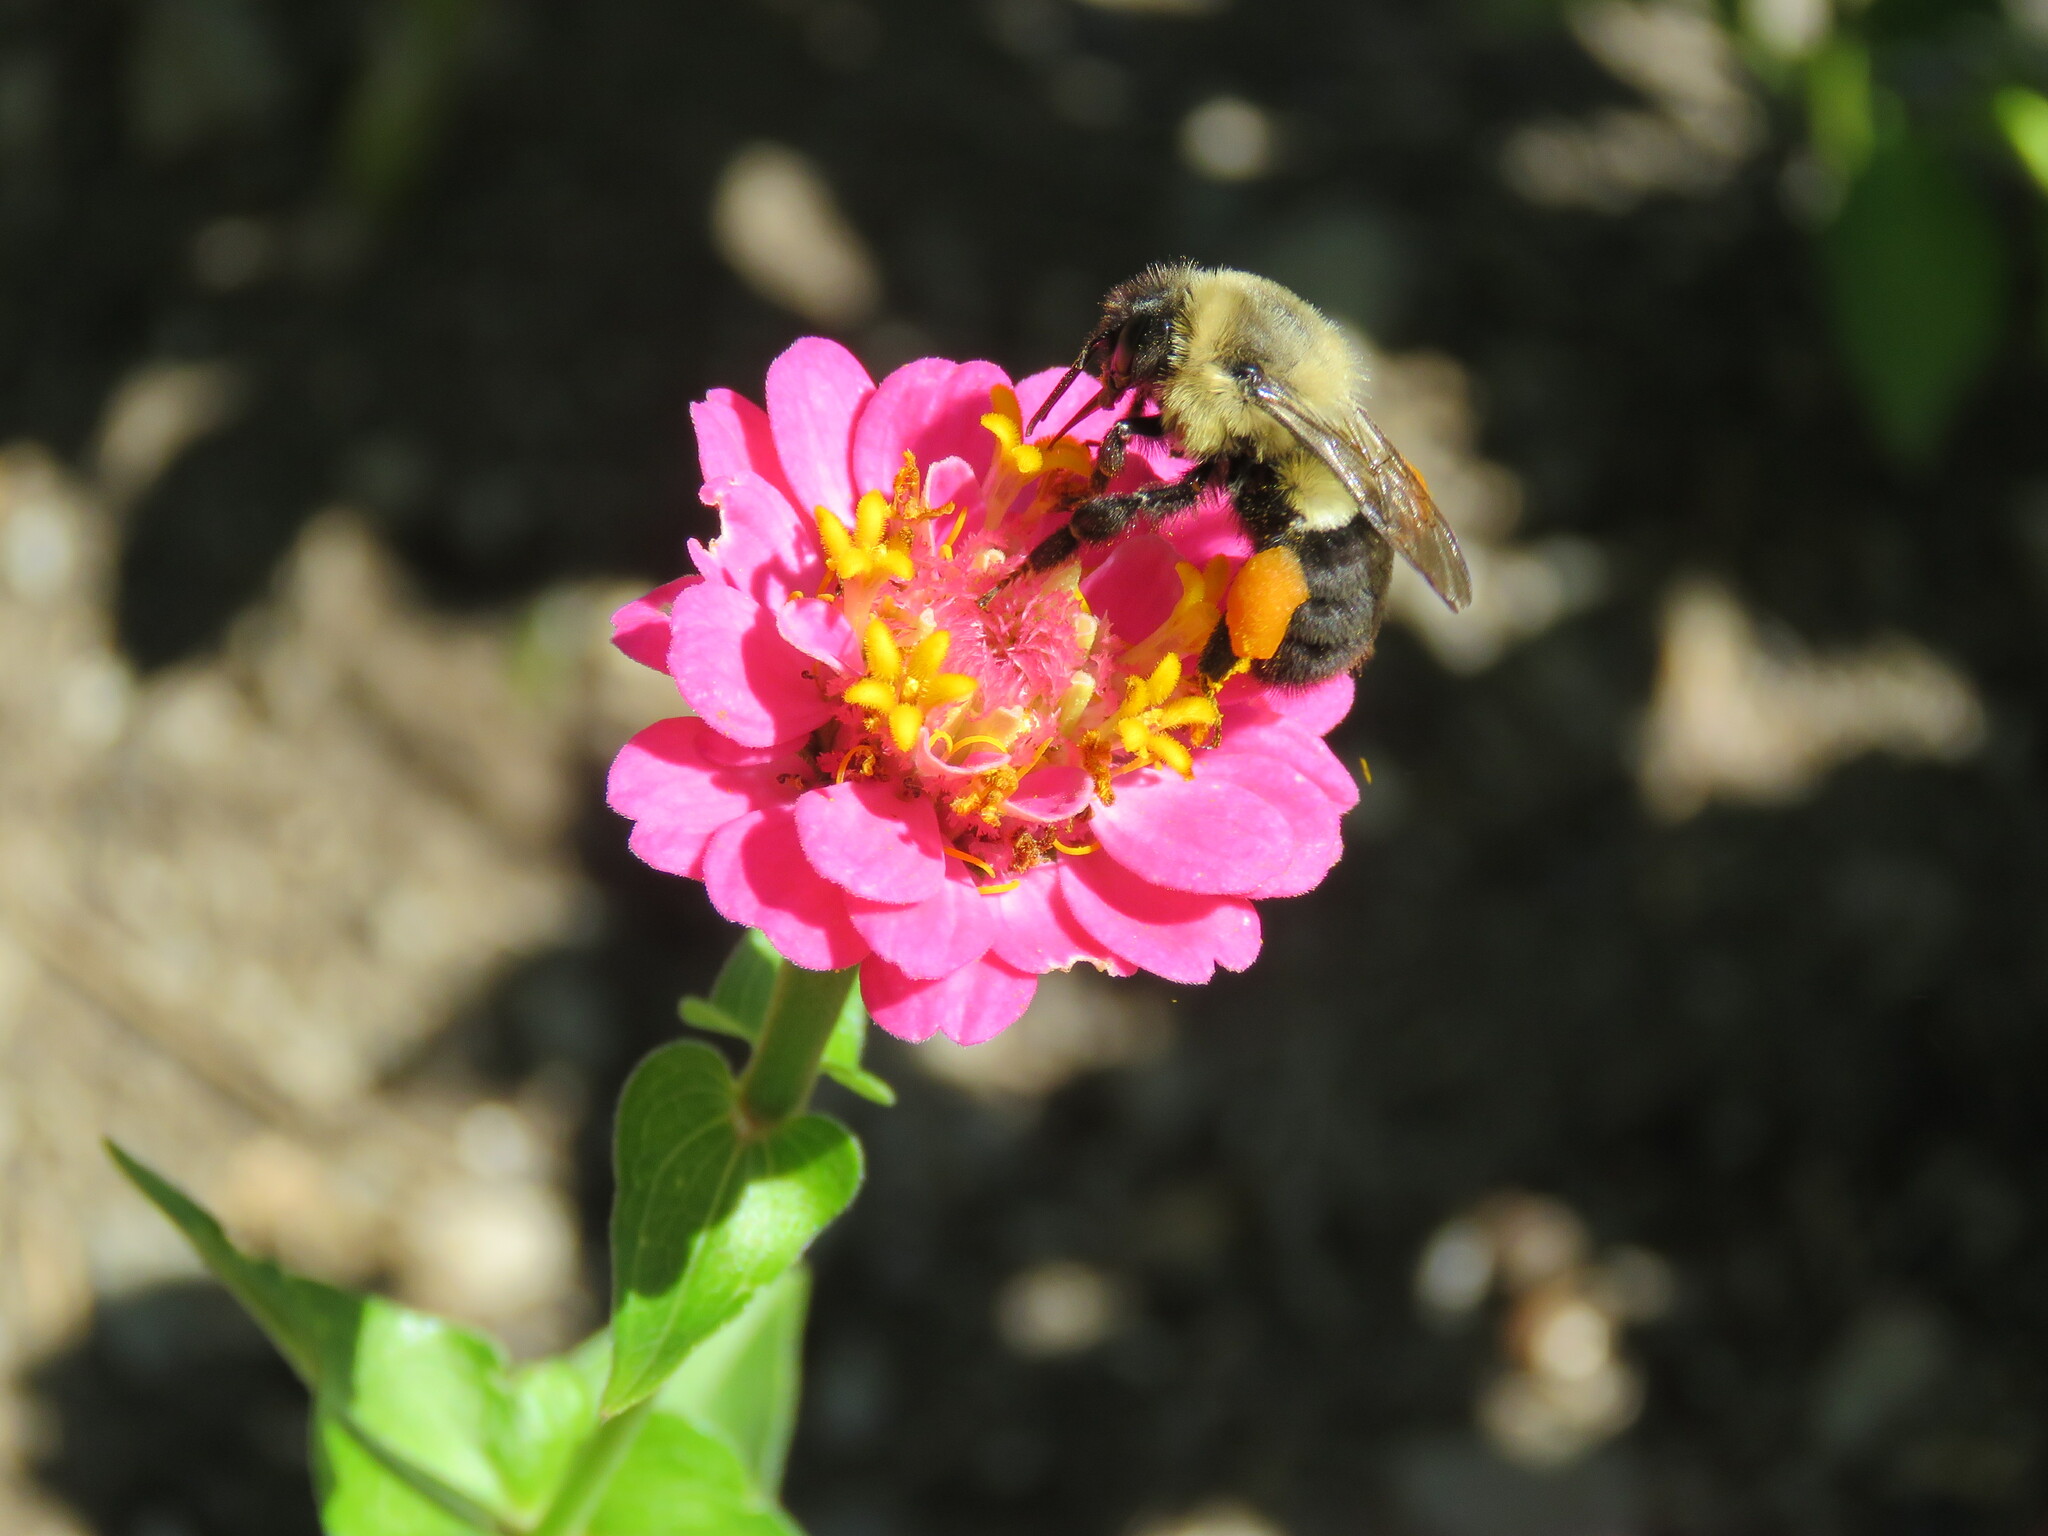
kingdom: Animalia
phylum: Arthropoda
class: Insecta
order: Hymenoptera
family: Apidae
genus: Bombus
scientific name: Bombus impatiens
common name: Common eastern bumble bee
